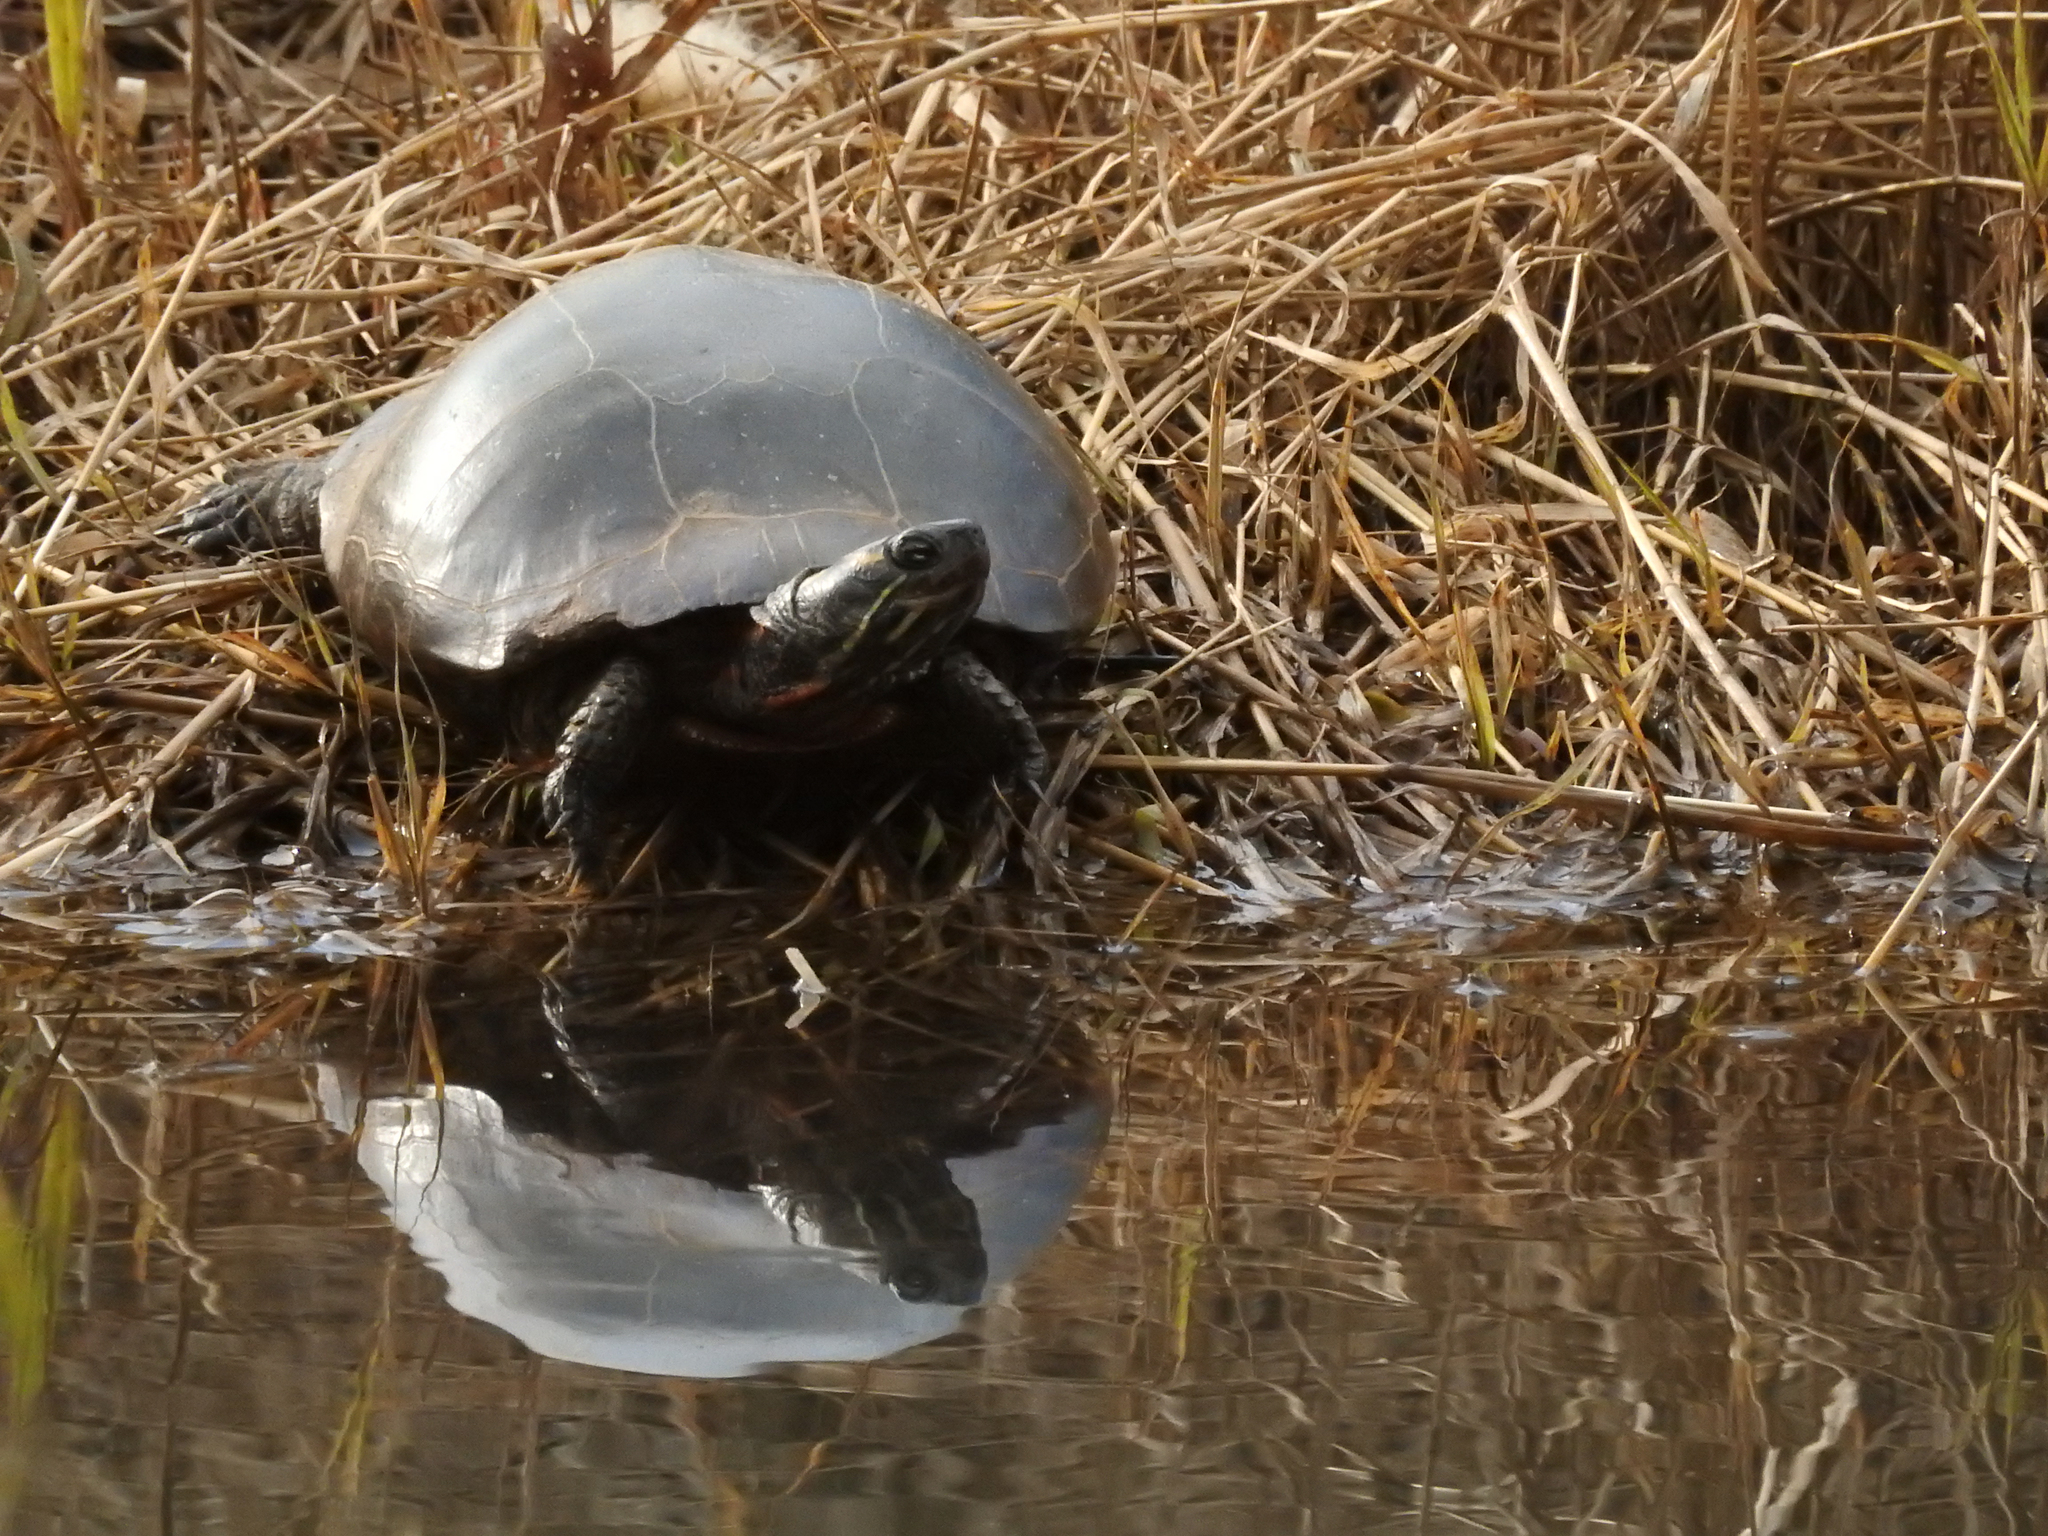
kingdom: Animalia
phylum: Chordata
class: Testudines
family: Emydidae
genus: Chrysemys
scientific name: Chrysemys picta
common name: Painted turtle
